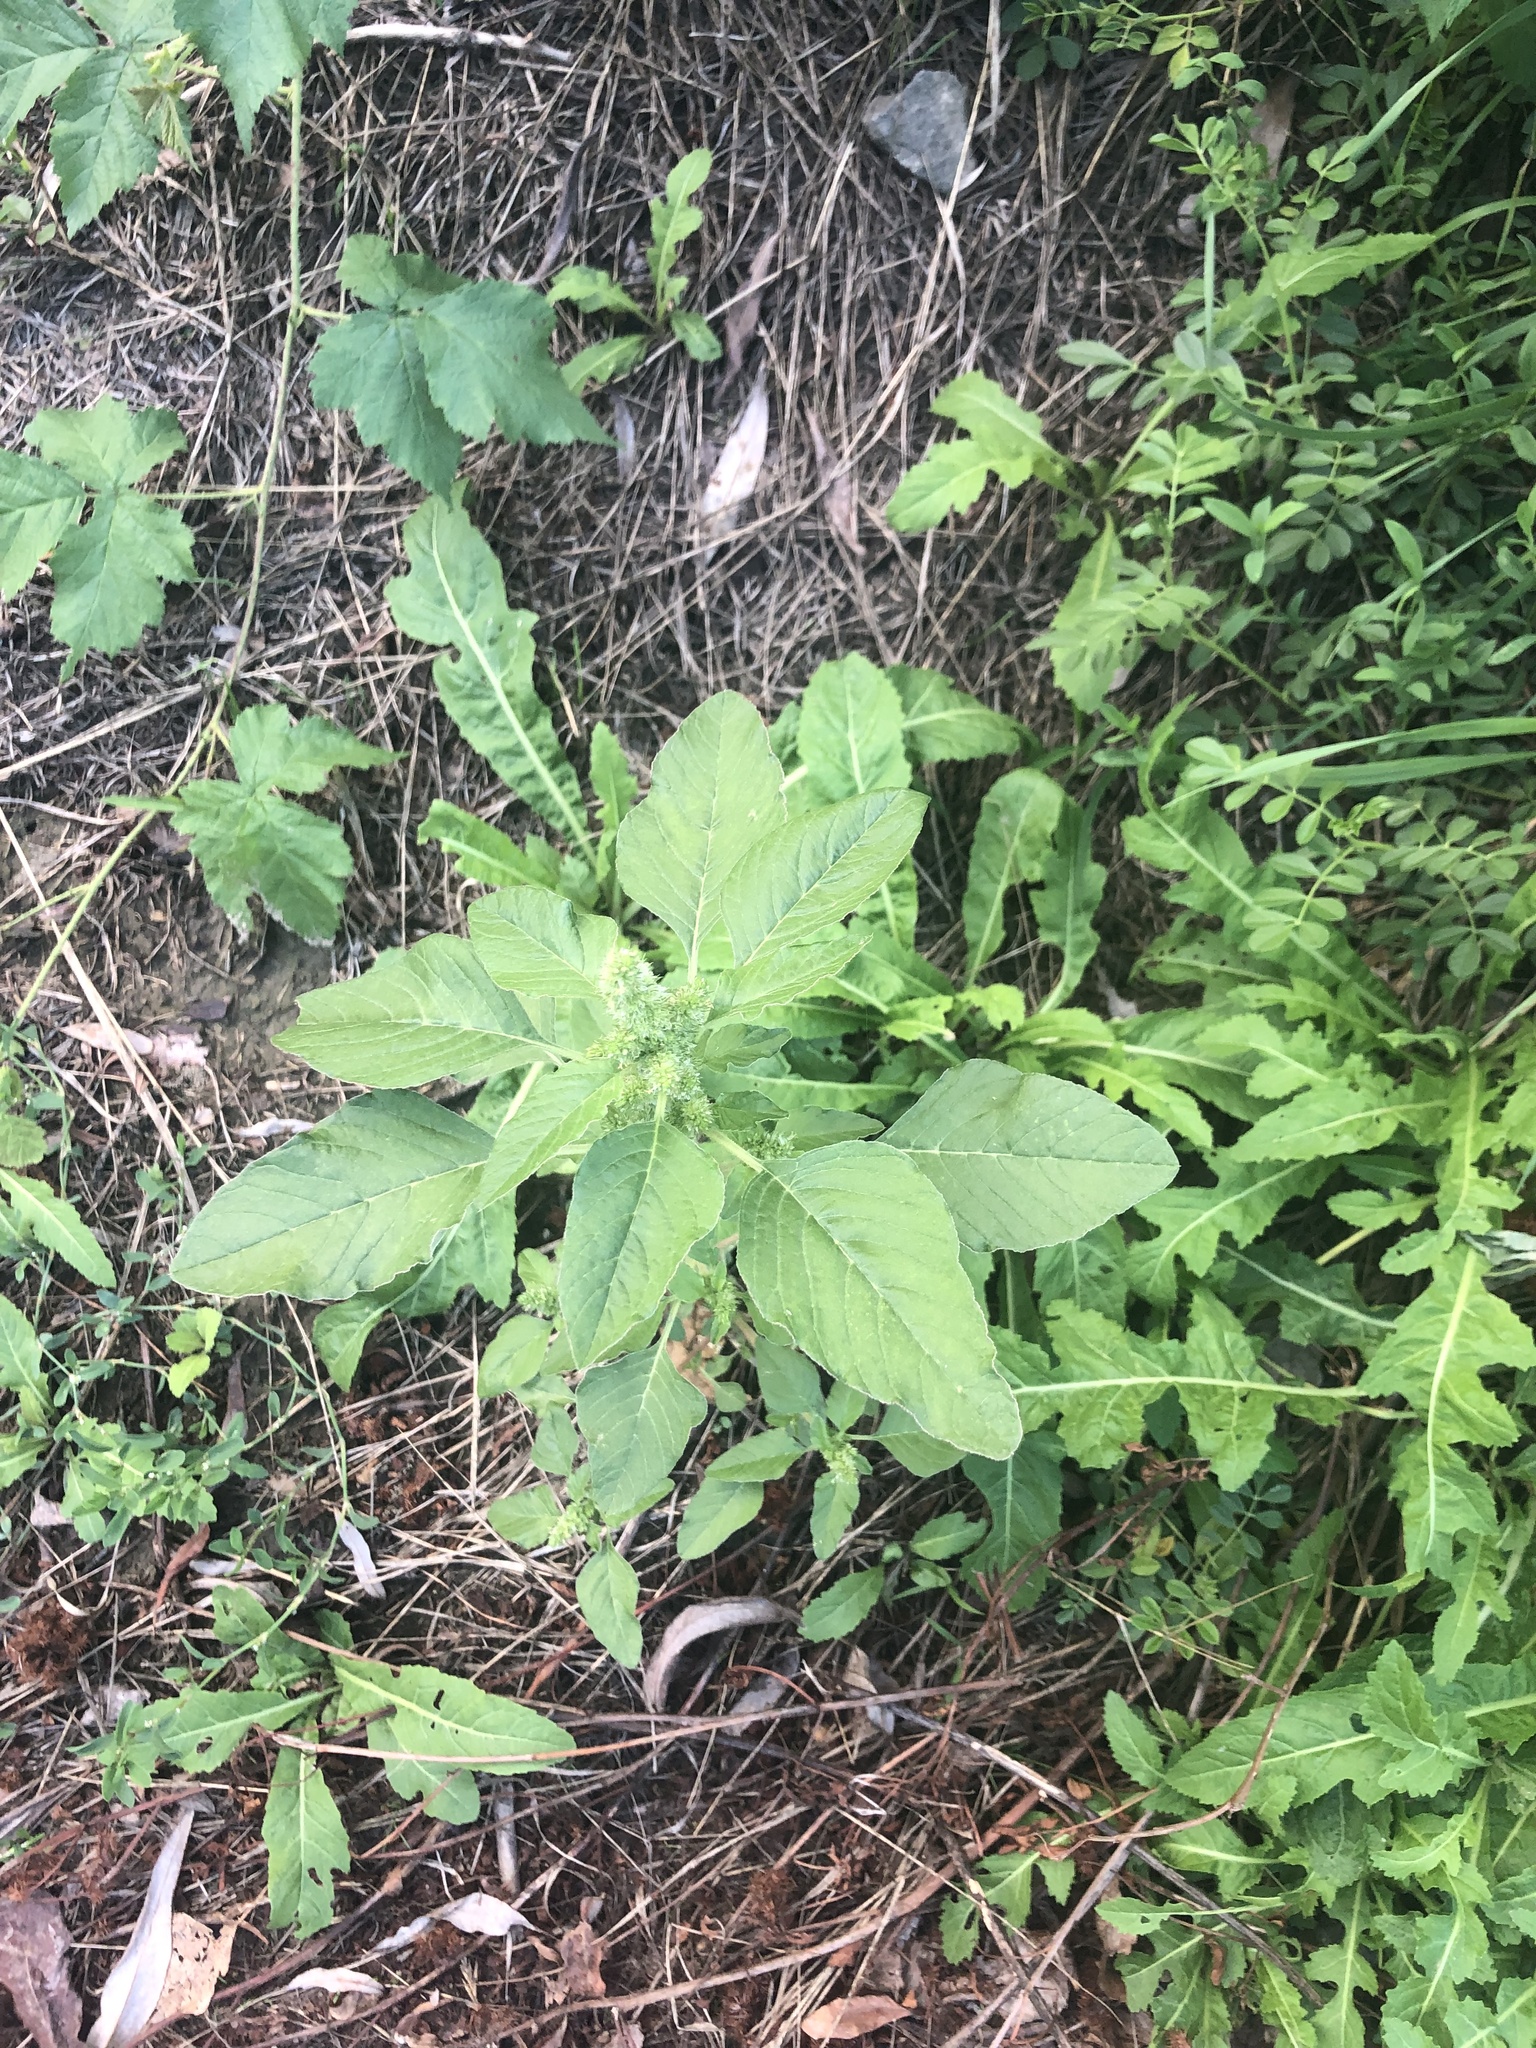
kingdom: Plantae
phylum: Tracheophyta
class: Magnoliopsida
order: Caryophyllales
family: Amaranthaceae
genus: Amaranthus
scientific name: Amaranthus retroflexus
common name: Redroot amaranth
